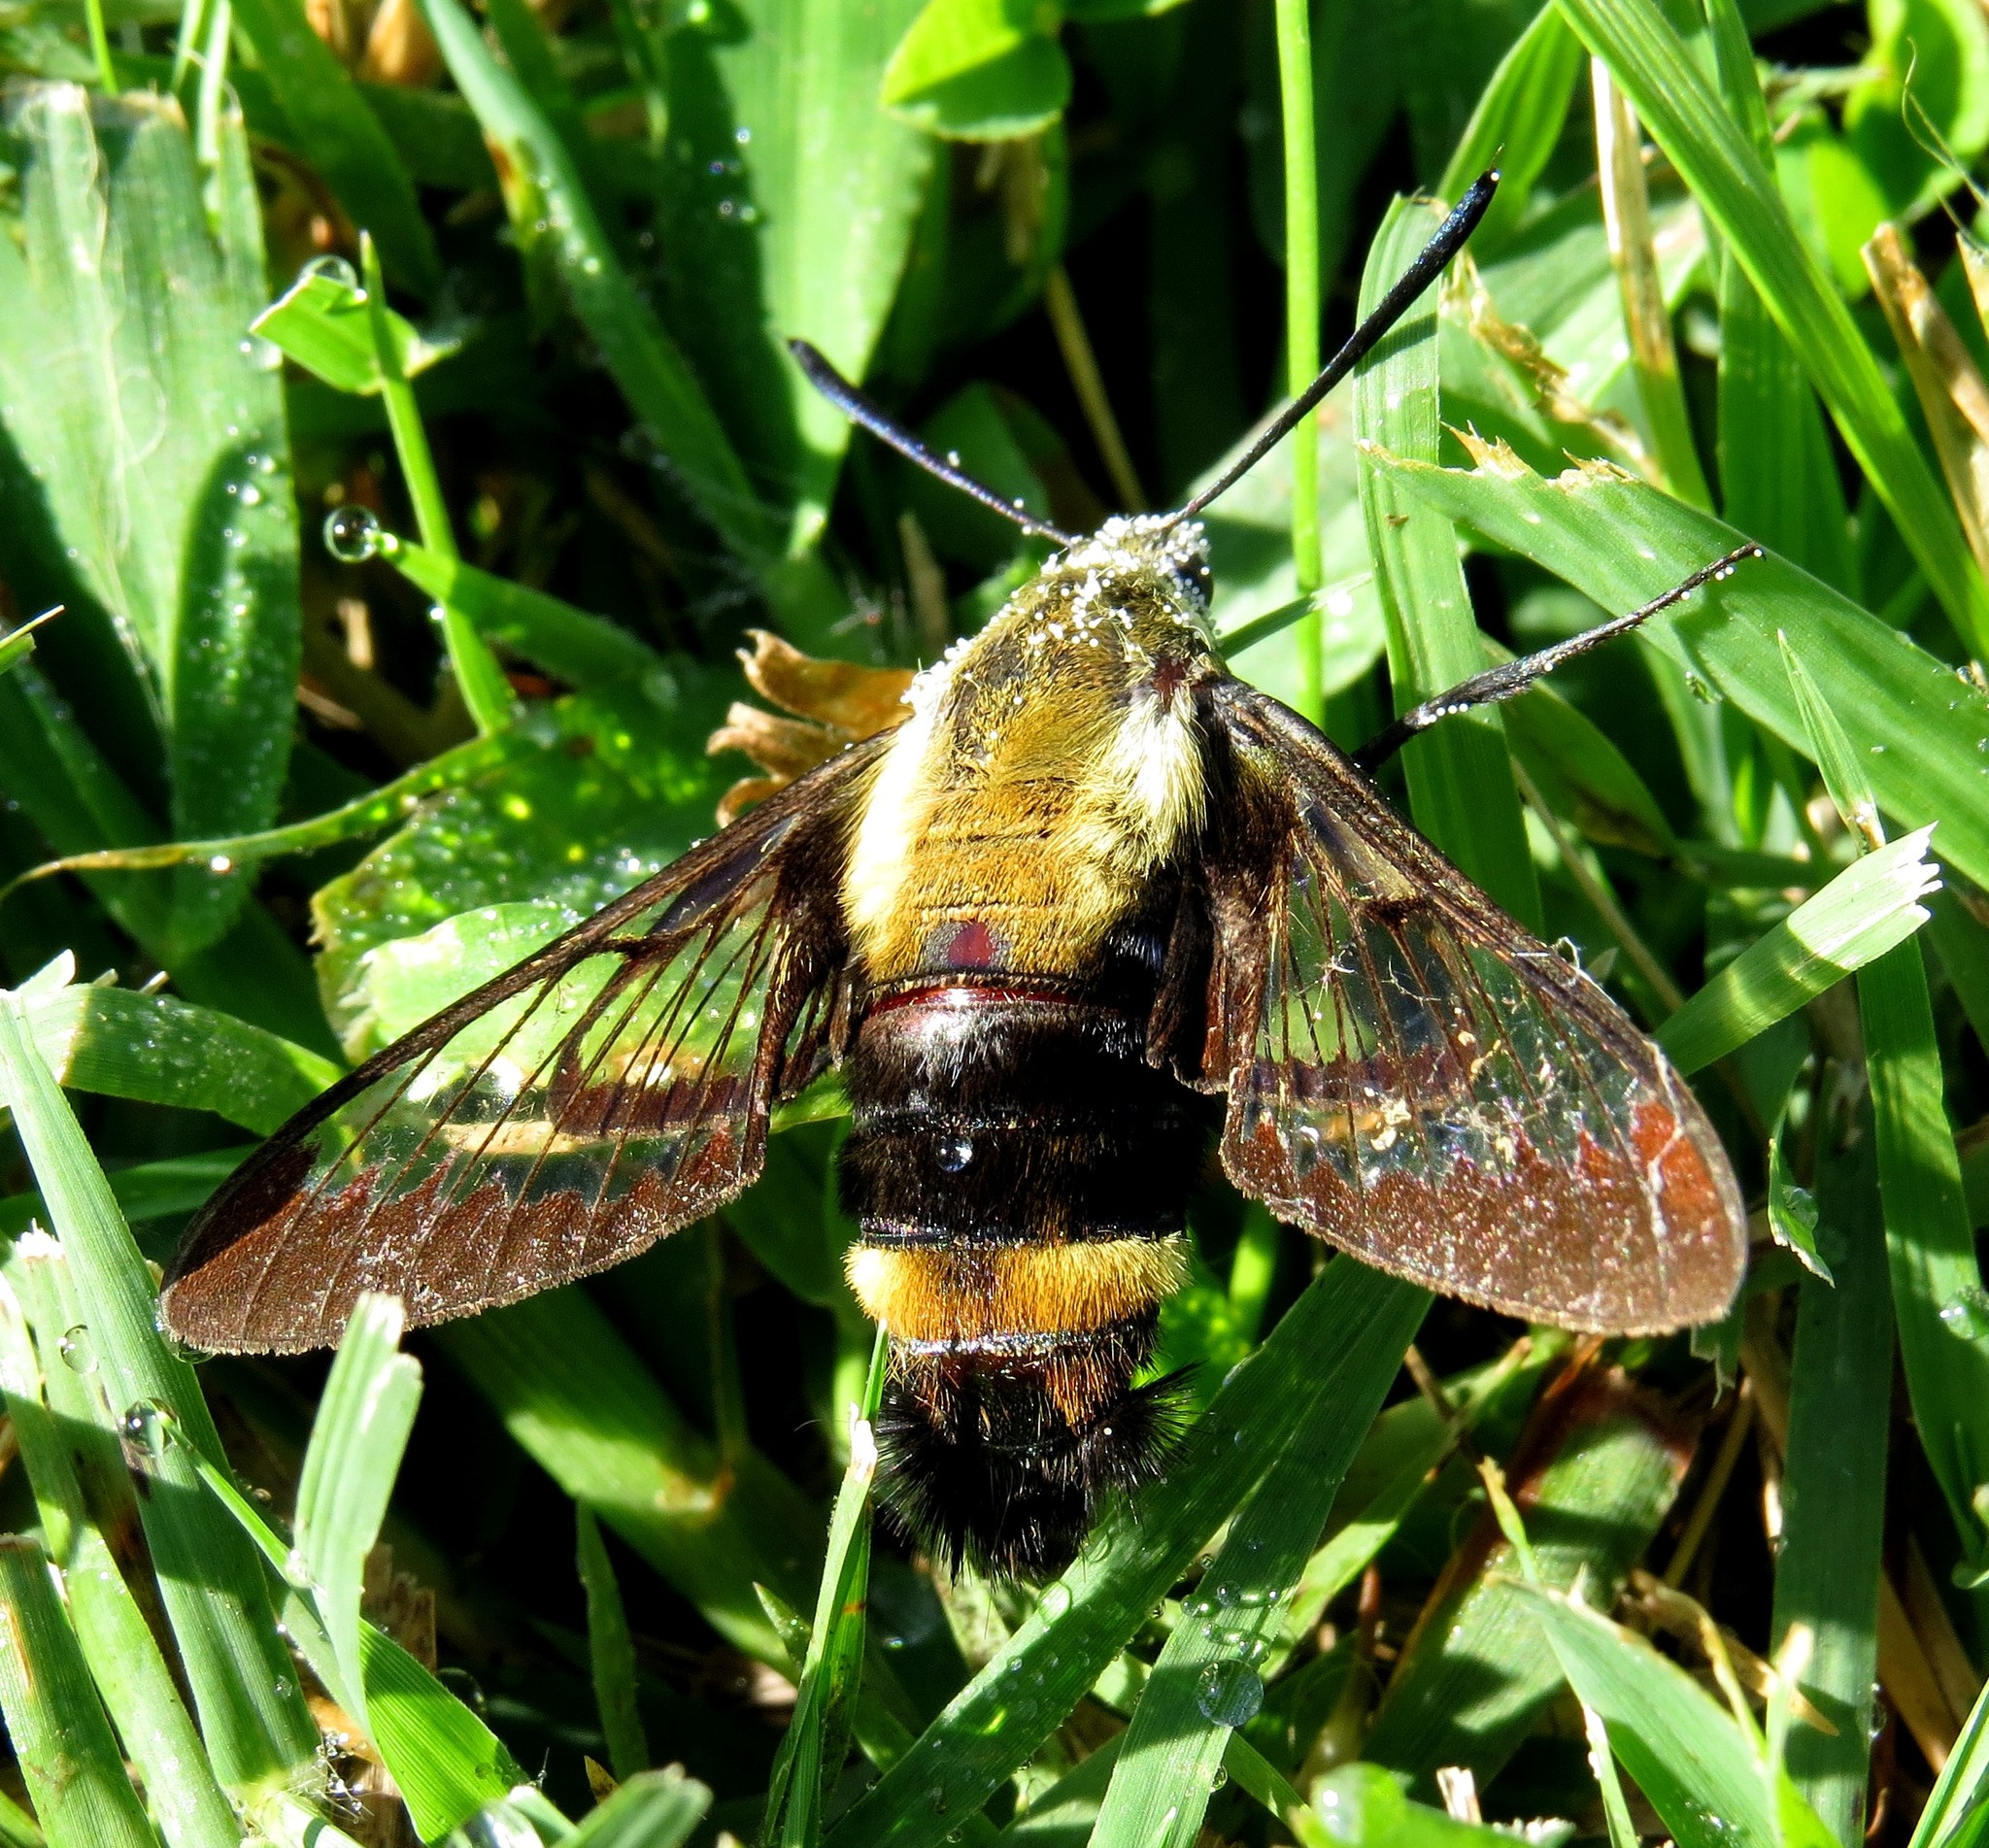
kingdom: Animalia
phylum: Arthropoda
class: Insecta
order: Lepidoptera
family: Sphingidae
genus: Hemaris
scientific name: Hemaris diffinis
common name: Bumblebee moth
